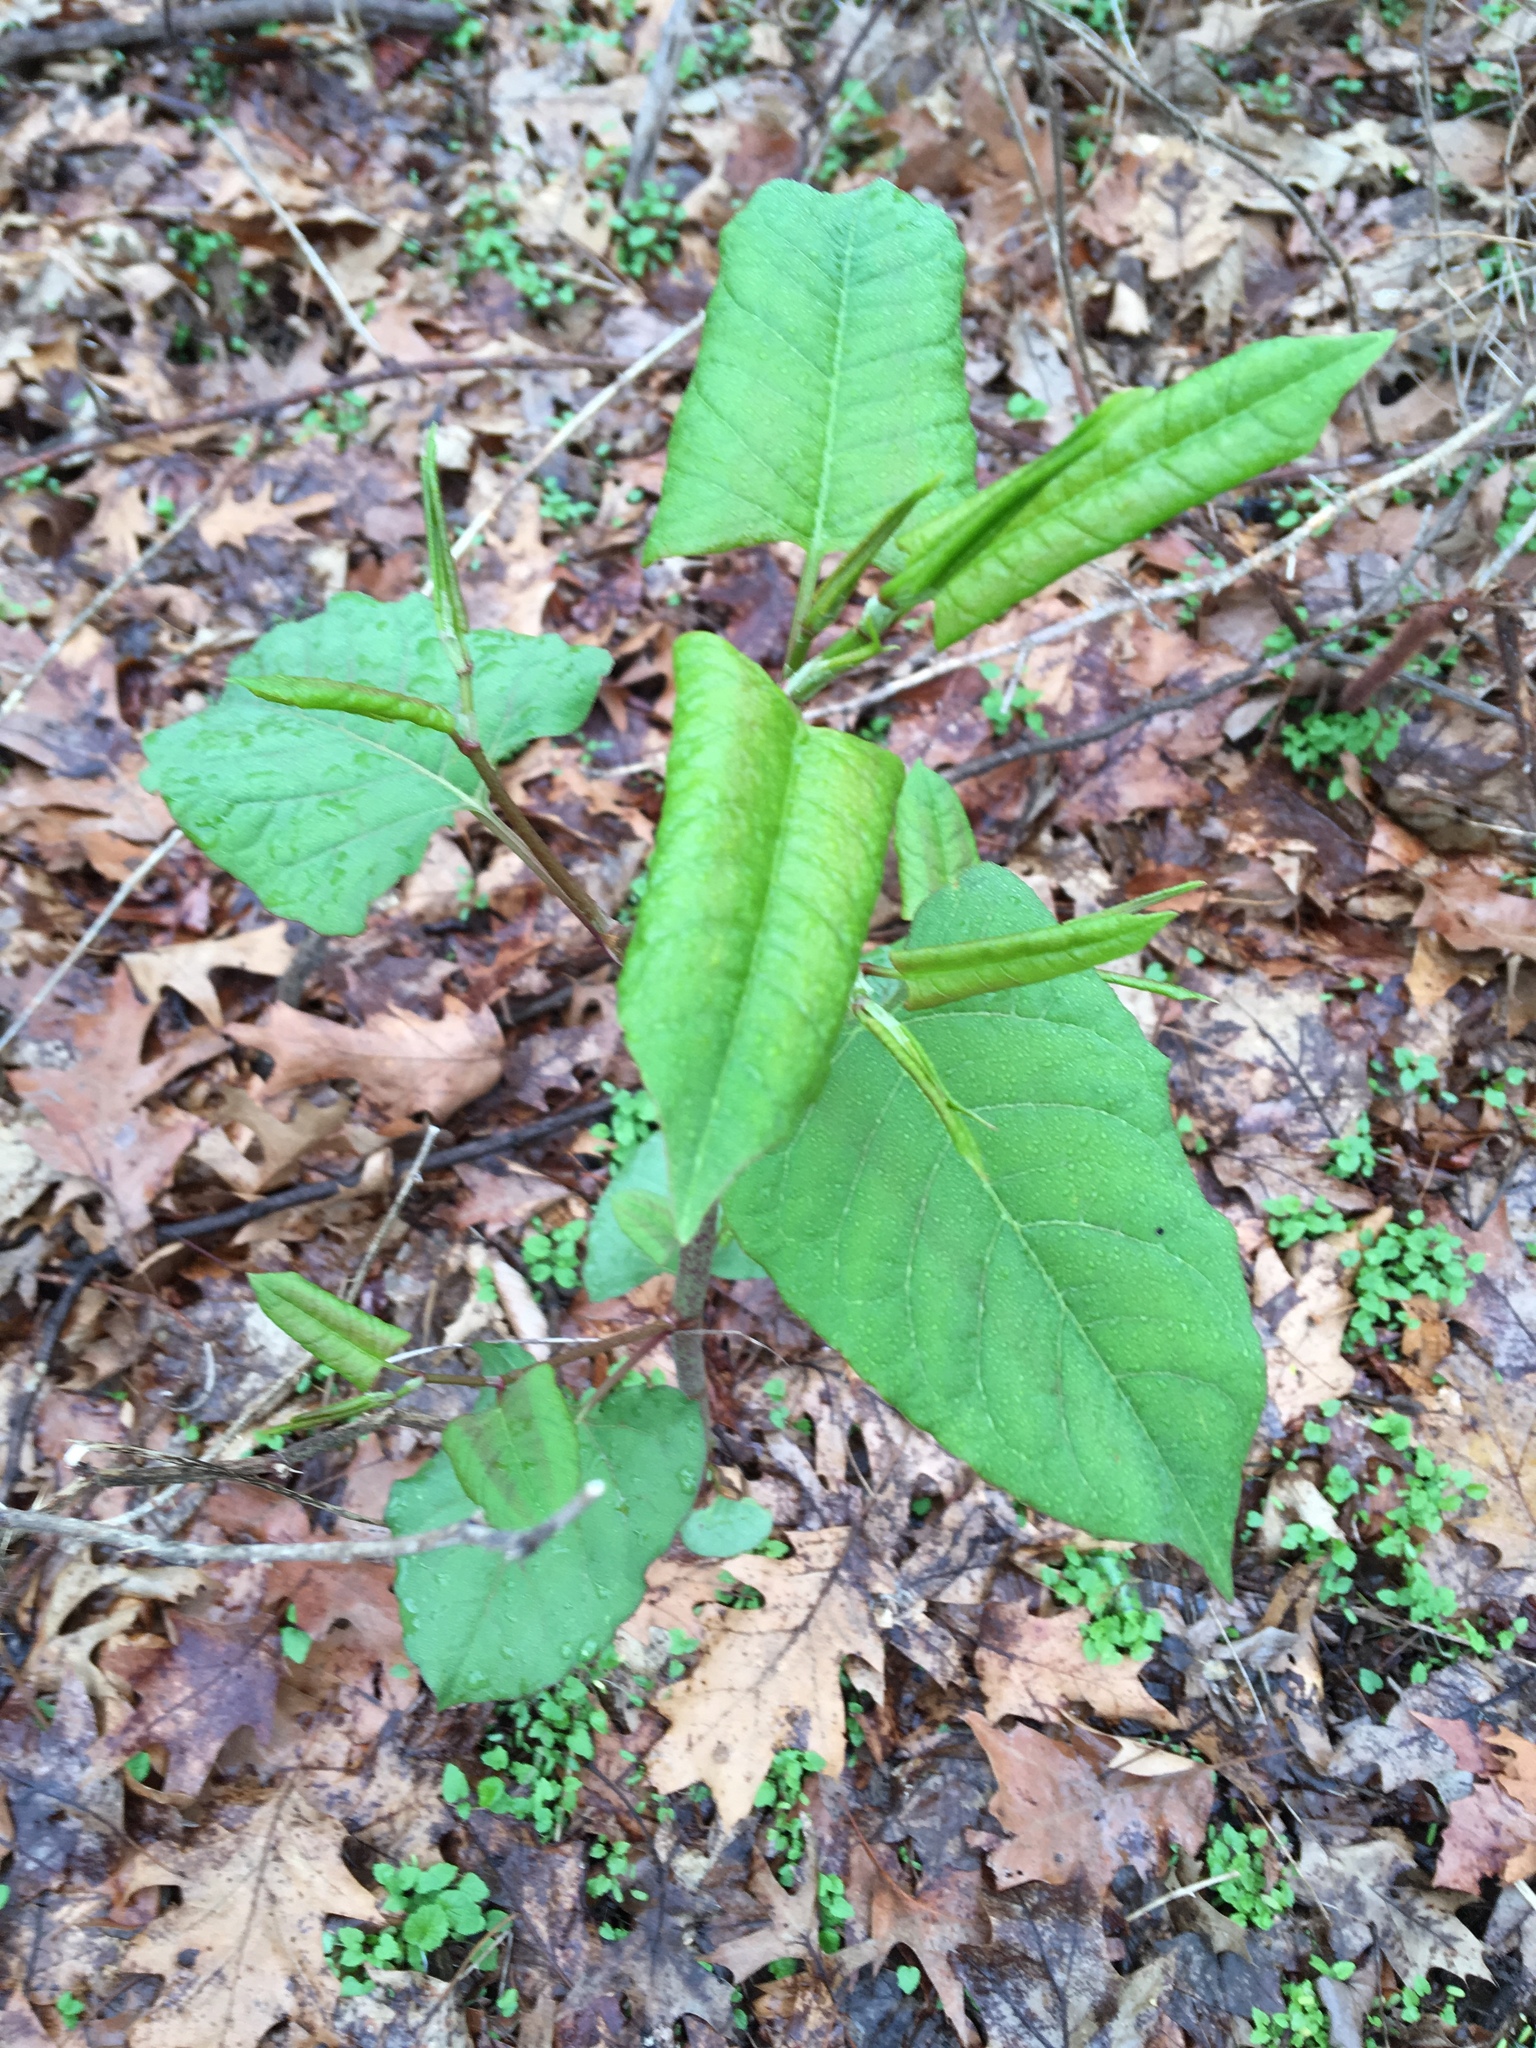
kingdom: Plantae
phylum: Tracheophyta
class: Magnoliopsida
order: Caryophyllales
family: Polygonaceae
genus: Reynoutria
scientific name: Reynoutria japonica
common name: Japanese knotweed
